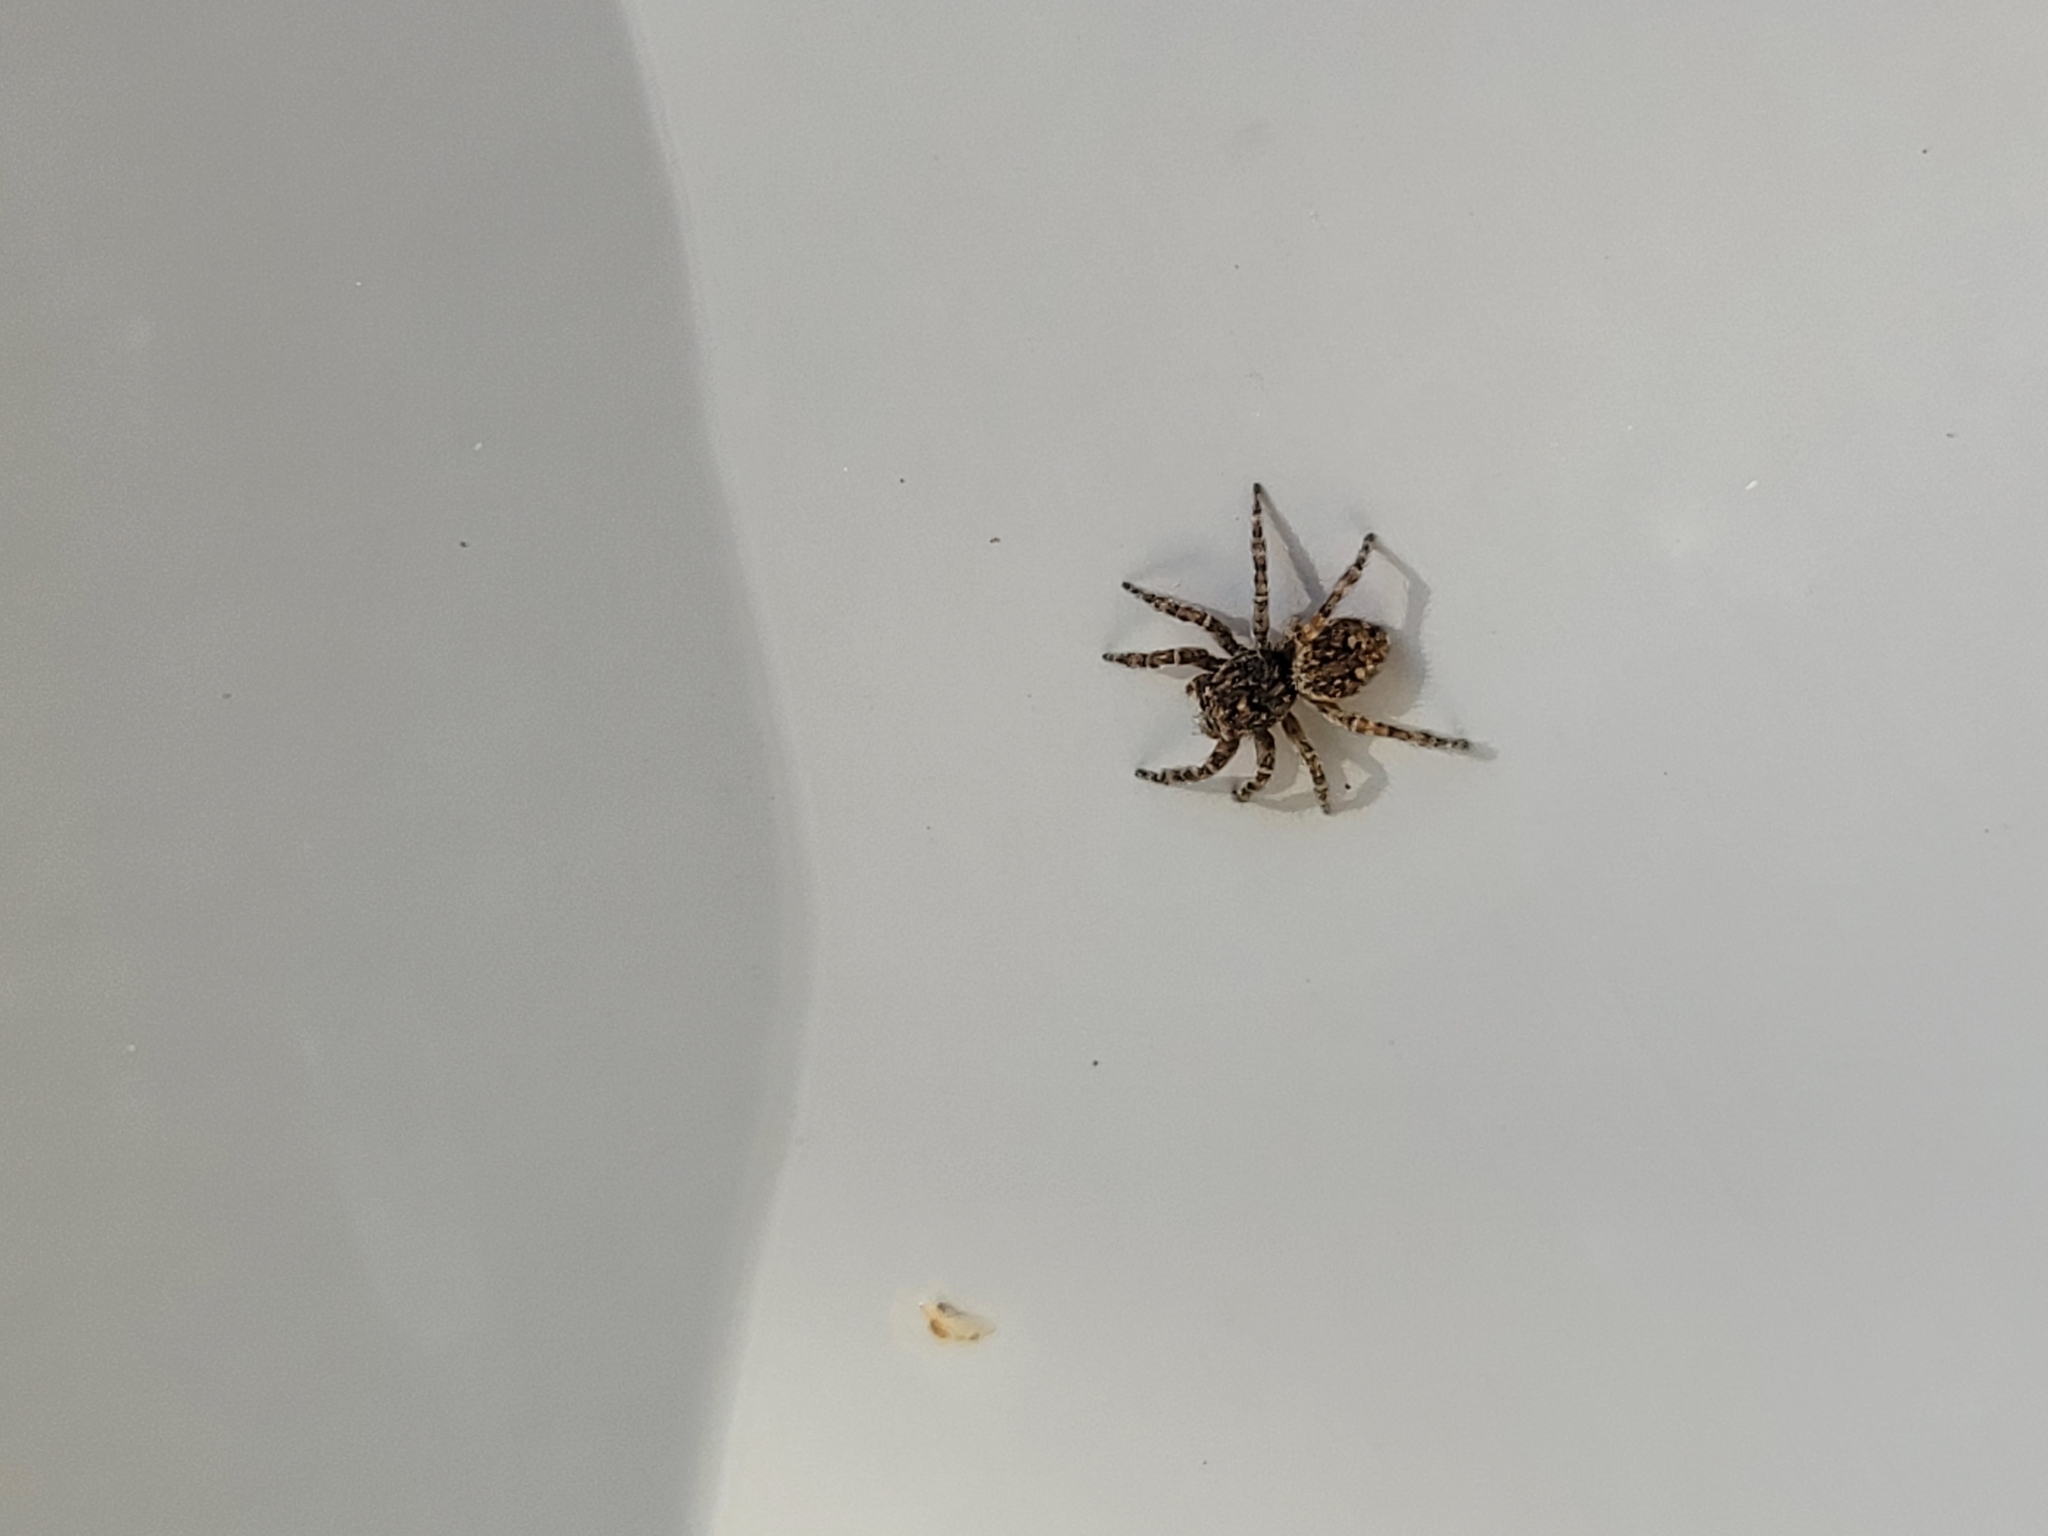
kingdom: Animalia
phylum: Arthropoda
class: Arachnida
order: Araneae
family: Salticidae
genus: Attulus
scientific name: Attulus pubescens
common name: Jumping spider
